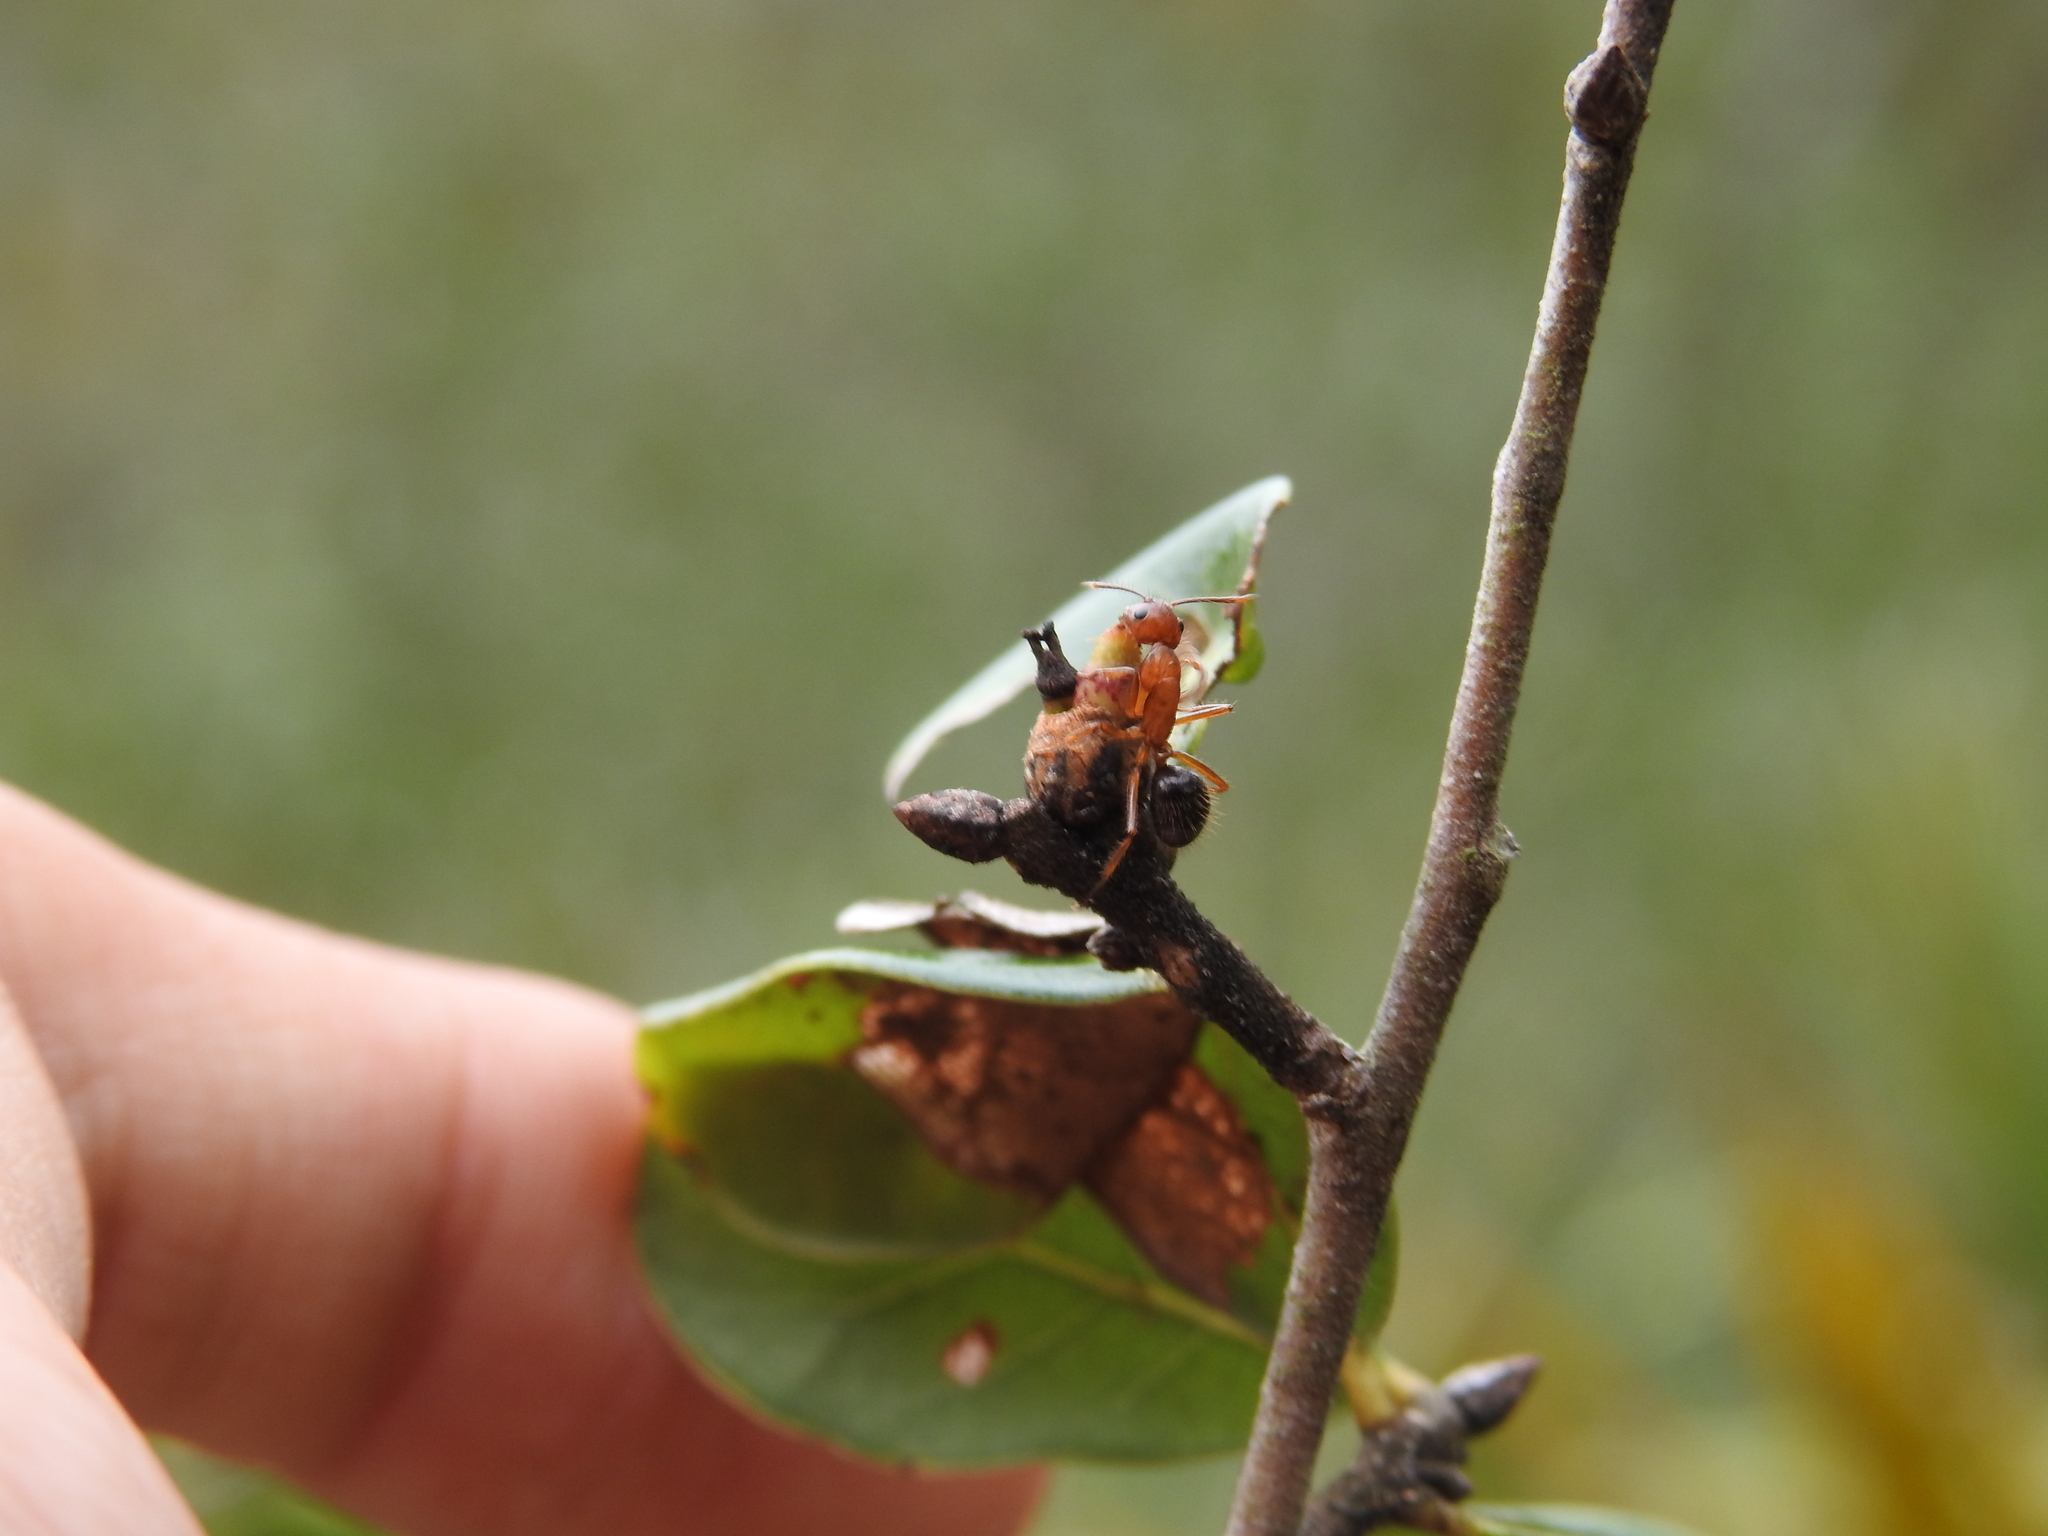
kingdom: Animalia
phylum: Arthropoda
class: Insecta
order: Hymenoptera
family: Formicidae
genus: Camponotus
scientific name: Camponotus floridanus
